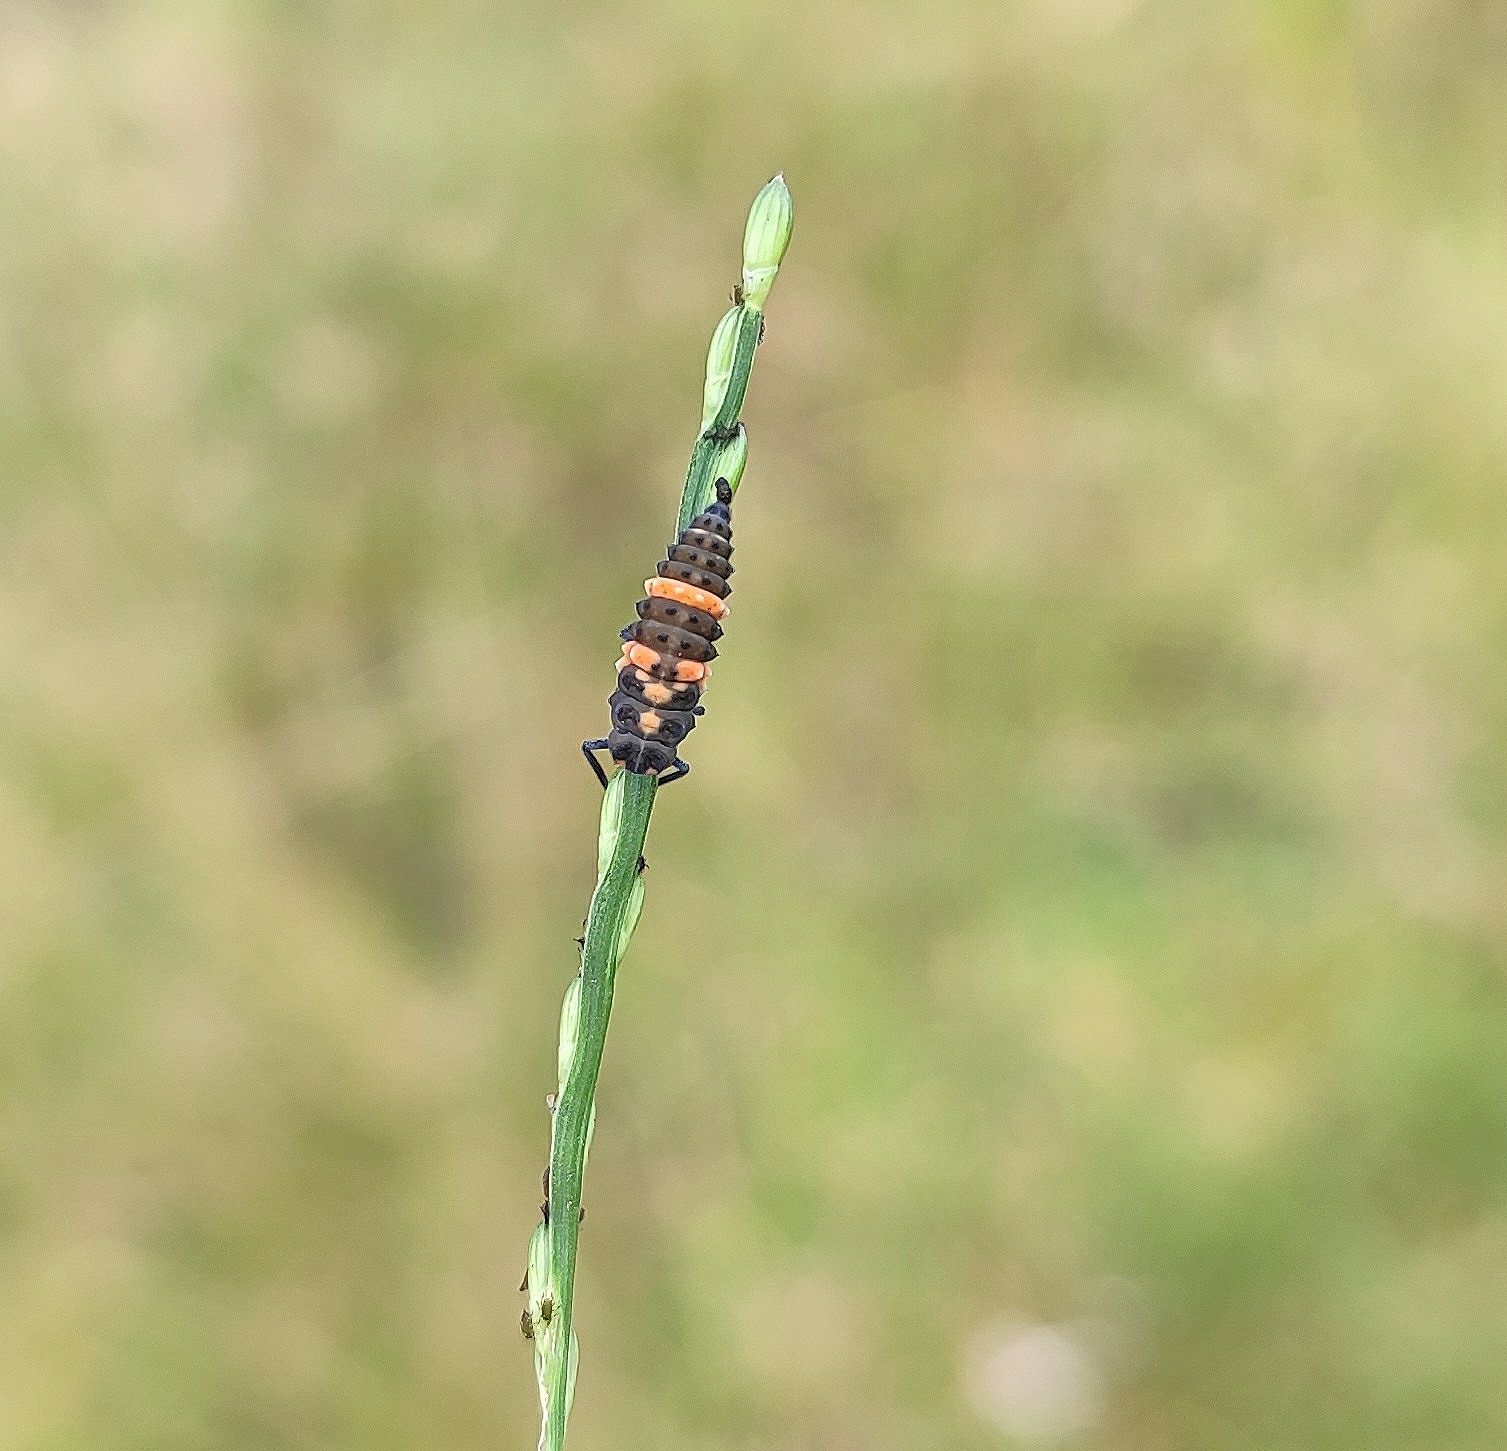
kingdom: Animalia
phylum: Arthropoda
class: Insecta
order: Coleoptera
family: Coccinellidae
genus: Coccinella
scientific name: Coccinella transversalis
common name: Transverse lady beetle
